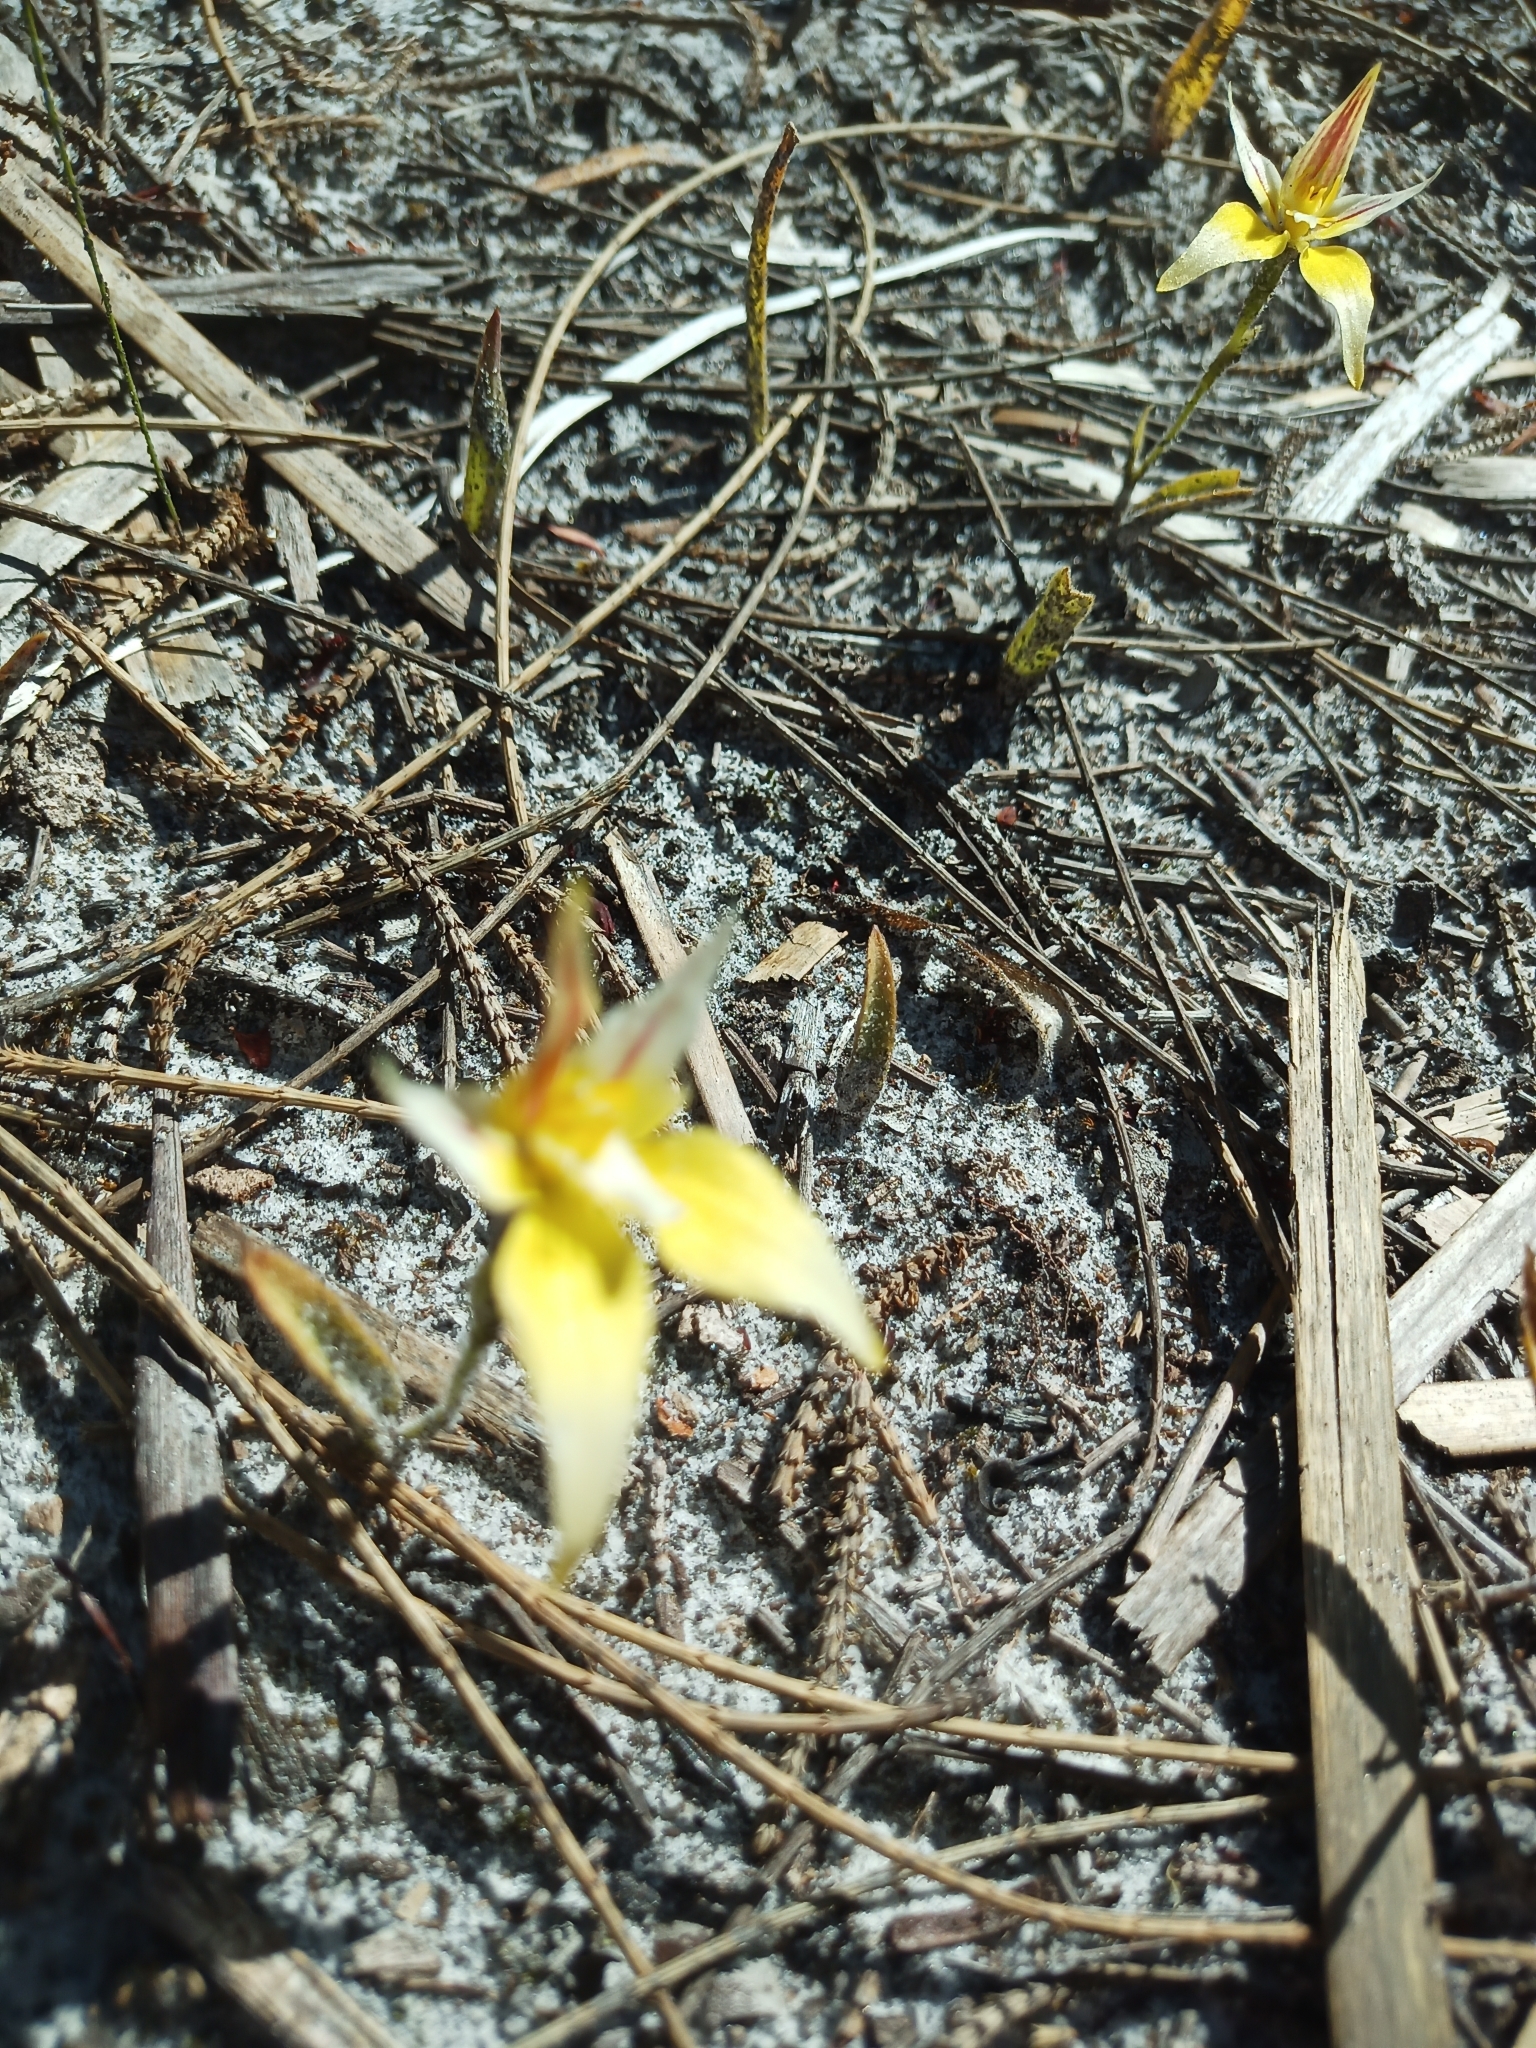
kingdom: Plantae
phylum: Tracheophyta
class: Liliopsida
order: Asparagales
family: Orchidaceae
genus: Caladenia
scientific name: Caladenia flava
